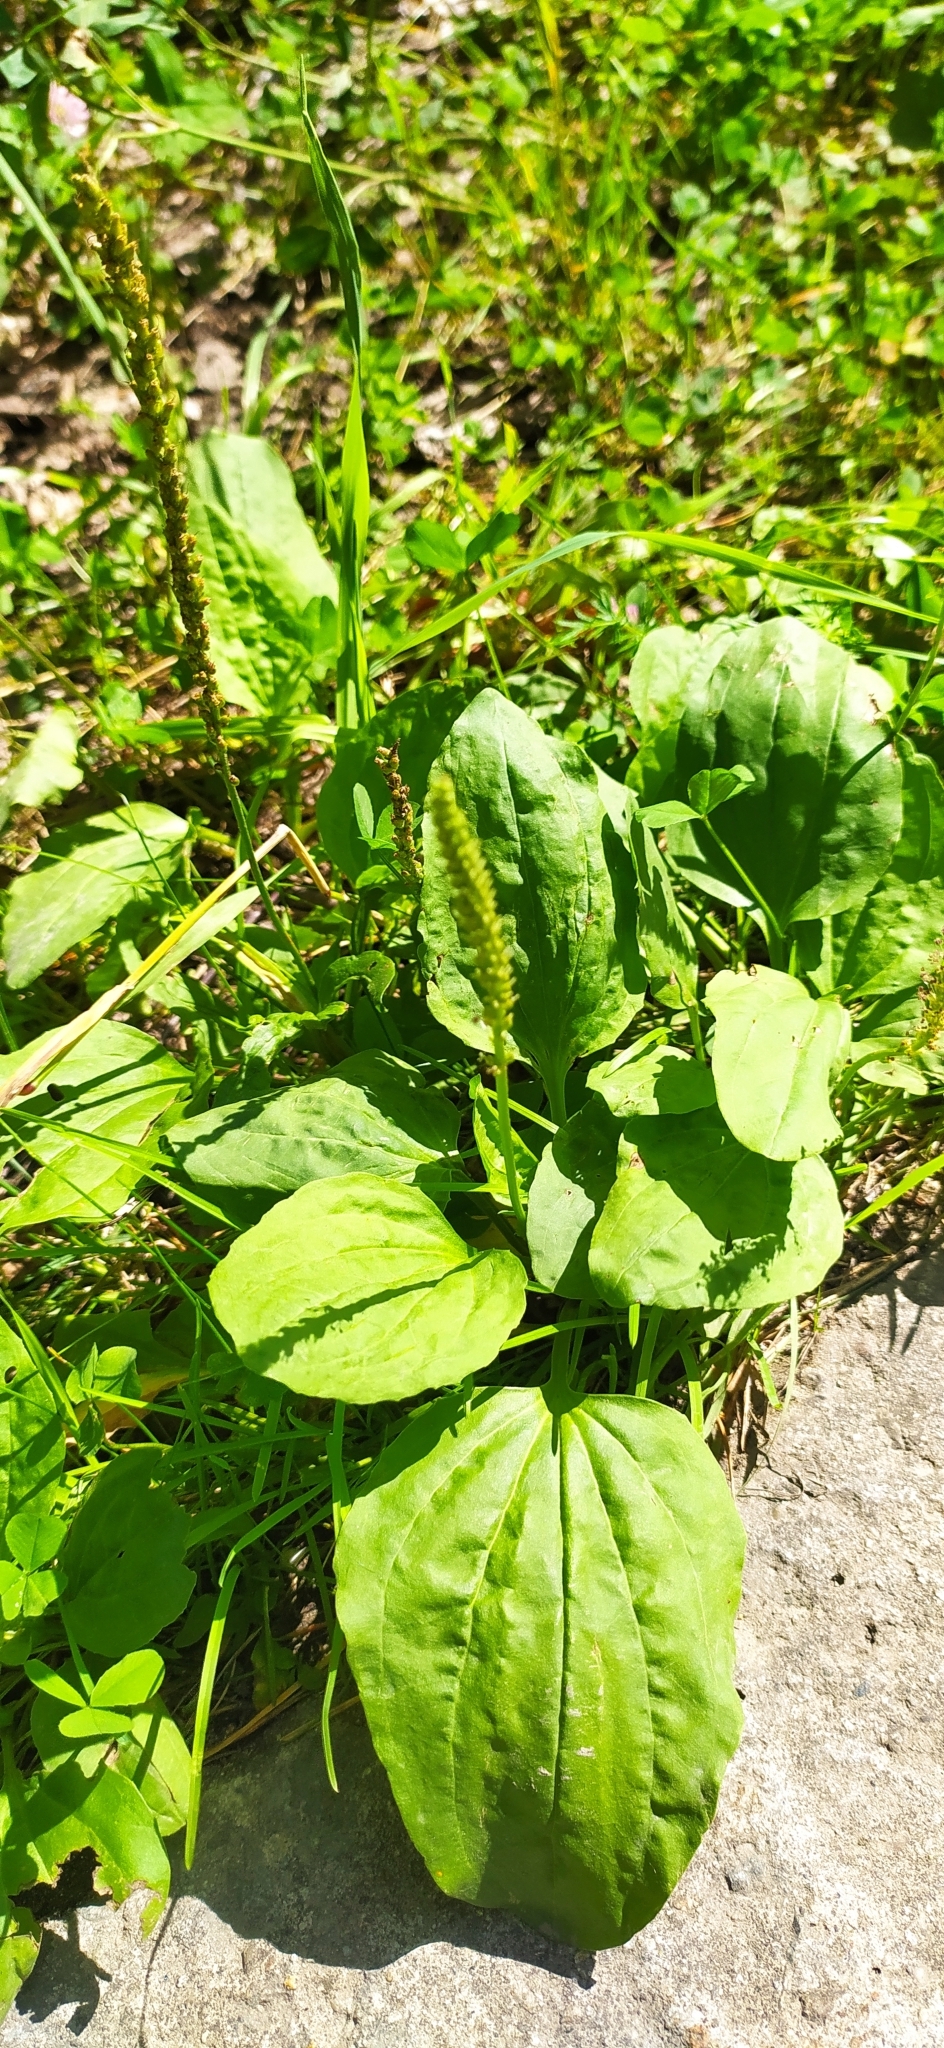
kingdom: Plantae
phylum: Tracheophyta
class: Magnoliopsida
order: Lamiales
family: Plantaginaceae
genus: Plantago
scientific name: Plantago major
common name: Common plantain
